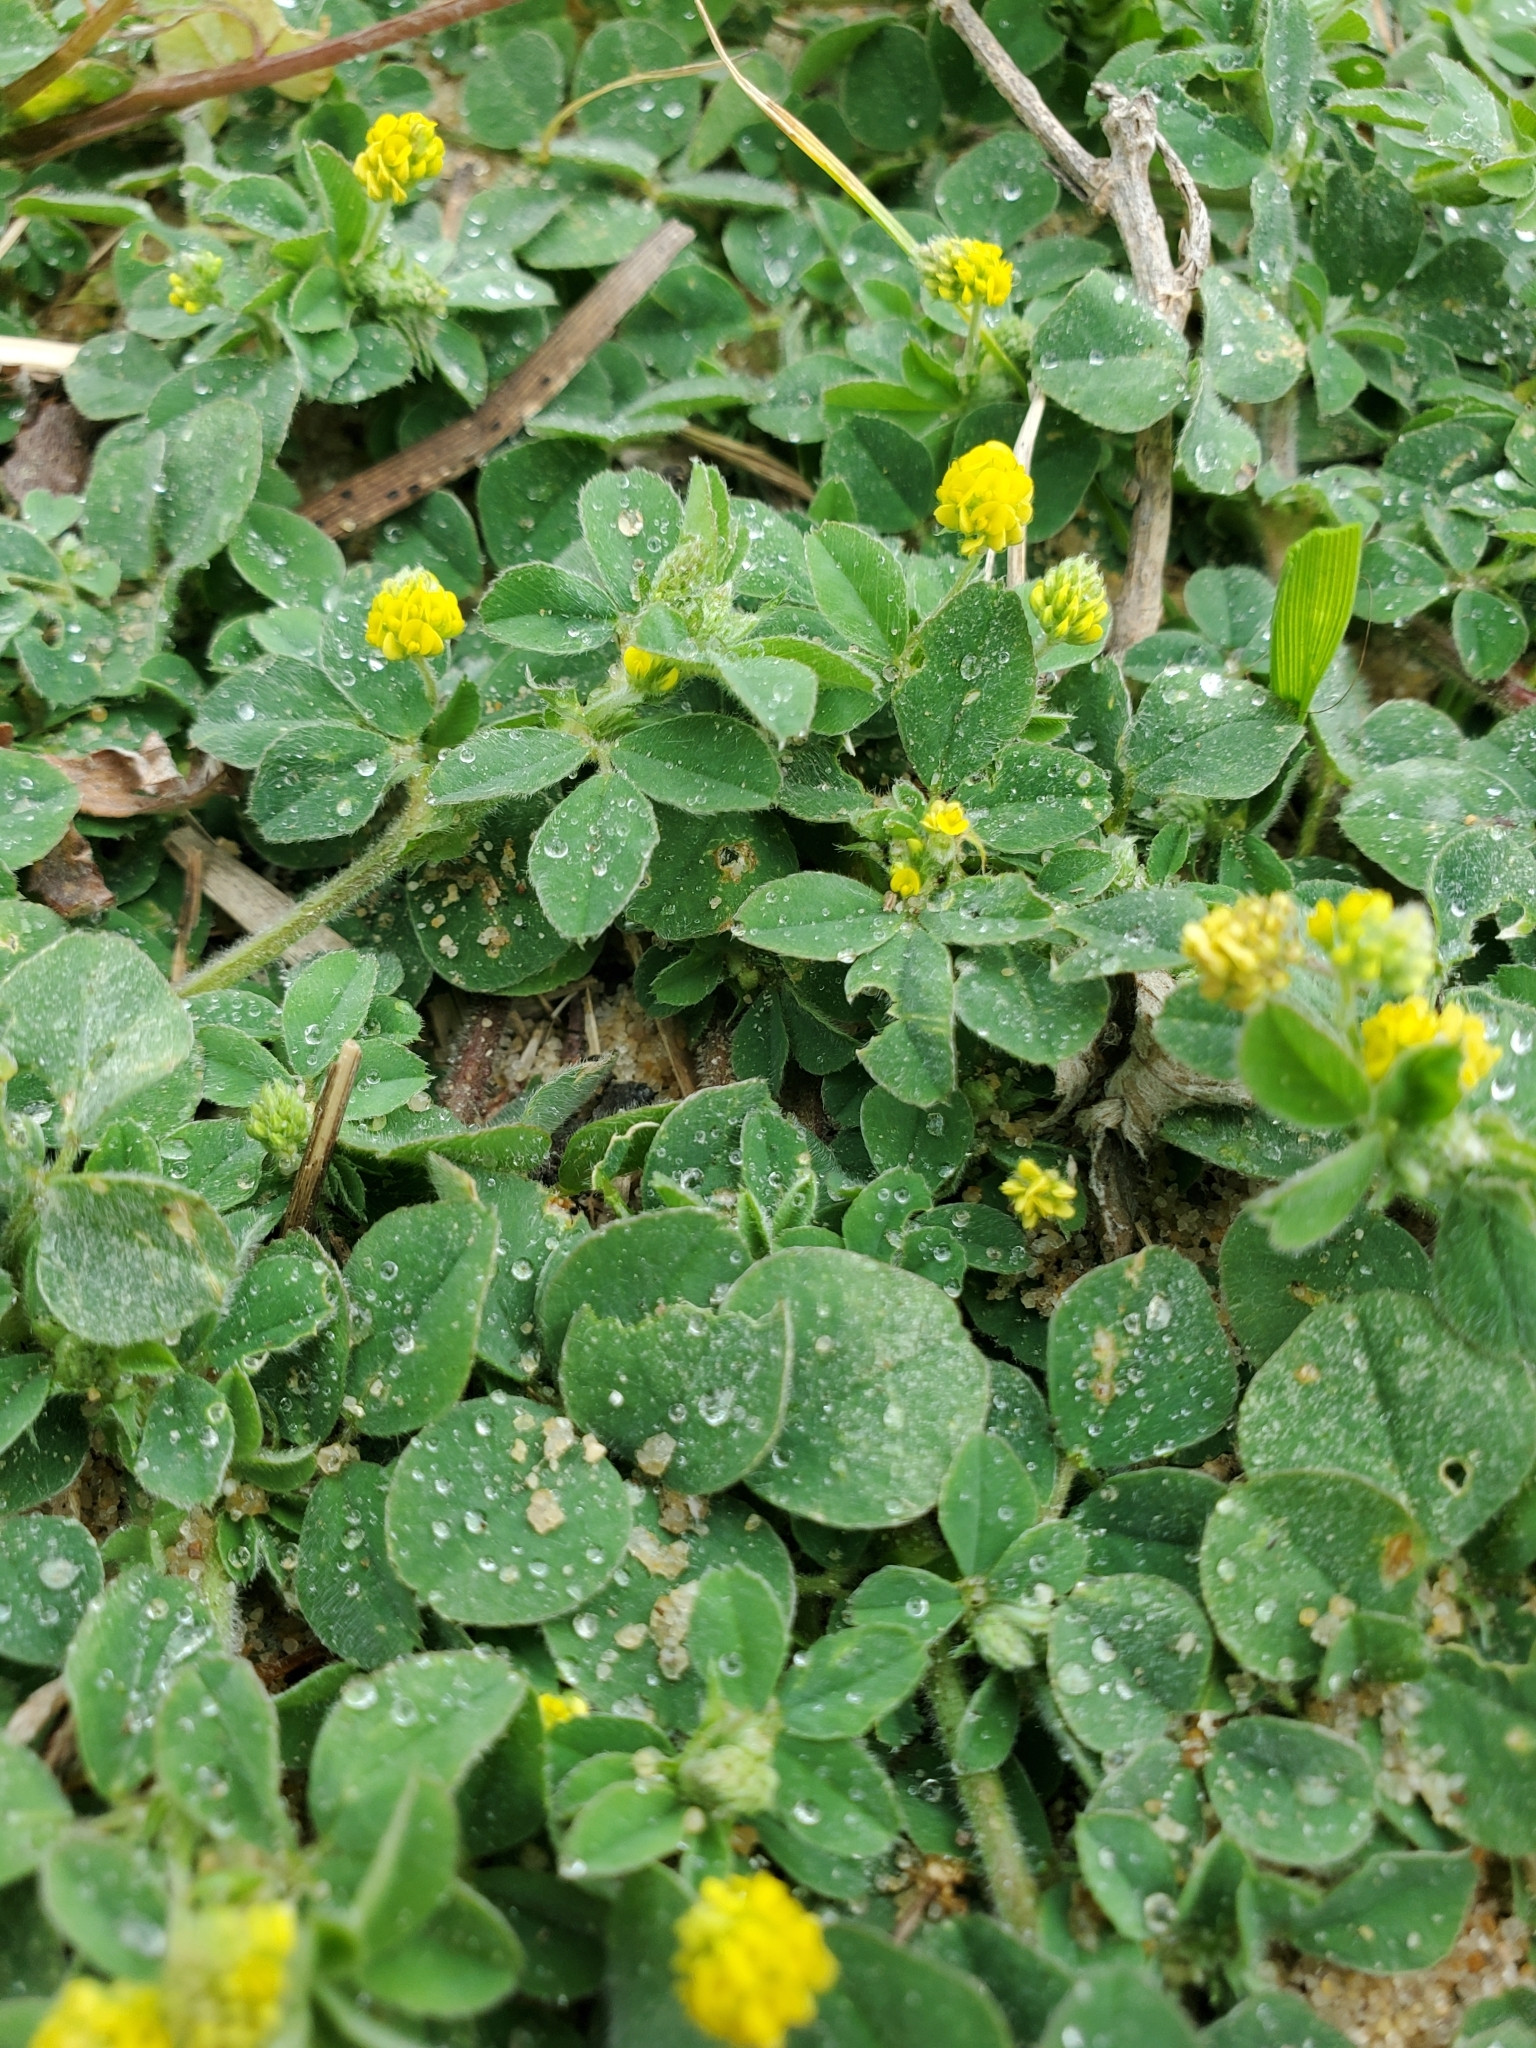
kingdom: Plantae
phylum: Tracheophyta
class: Magnoliopsida
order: Fabales
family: Fabaceae
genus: Medicago
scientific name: Medicago lupulina
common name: Black medick
